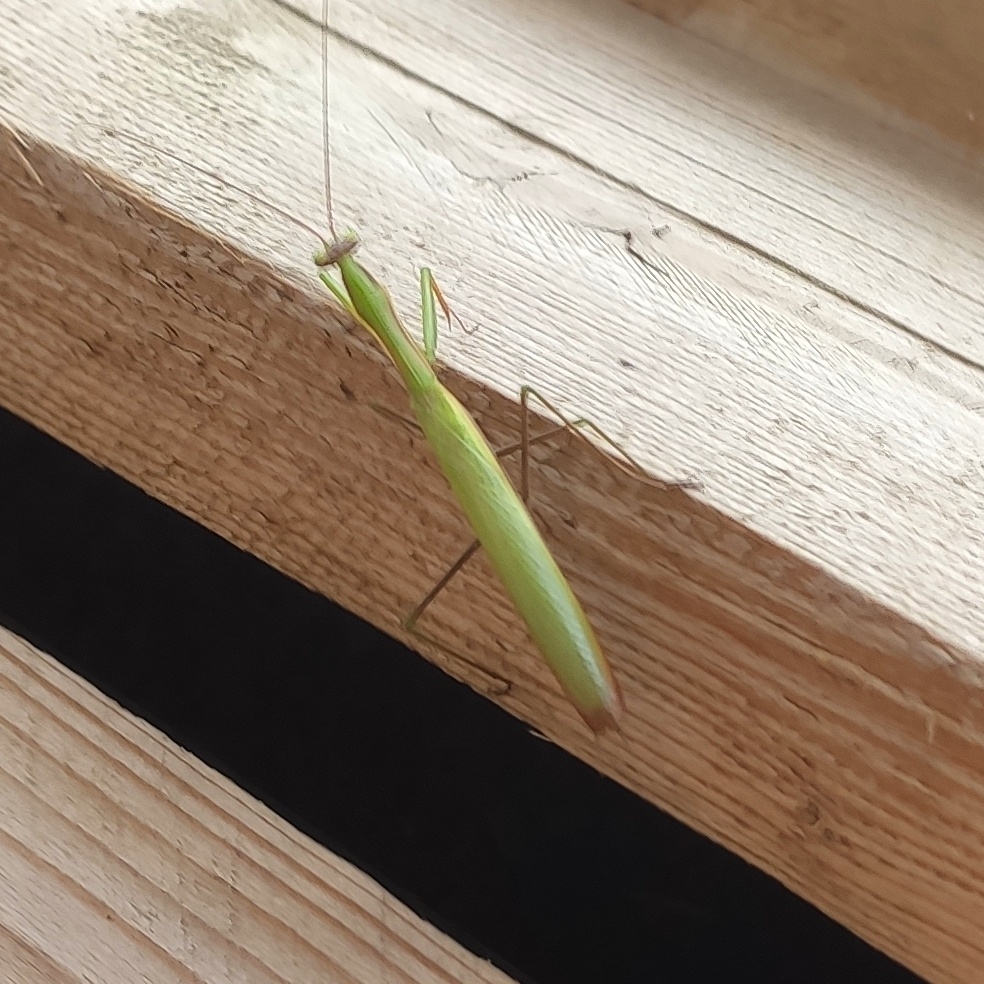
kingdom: Animalia
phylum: Arthropoda
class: Insecta
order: Mantodea
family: Mantidae
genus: Mantis
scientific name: Mantis religiosa
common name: Praying mantis
